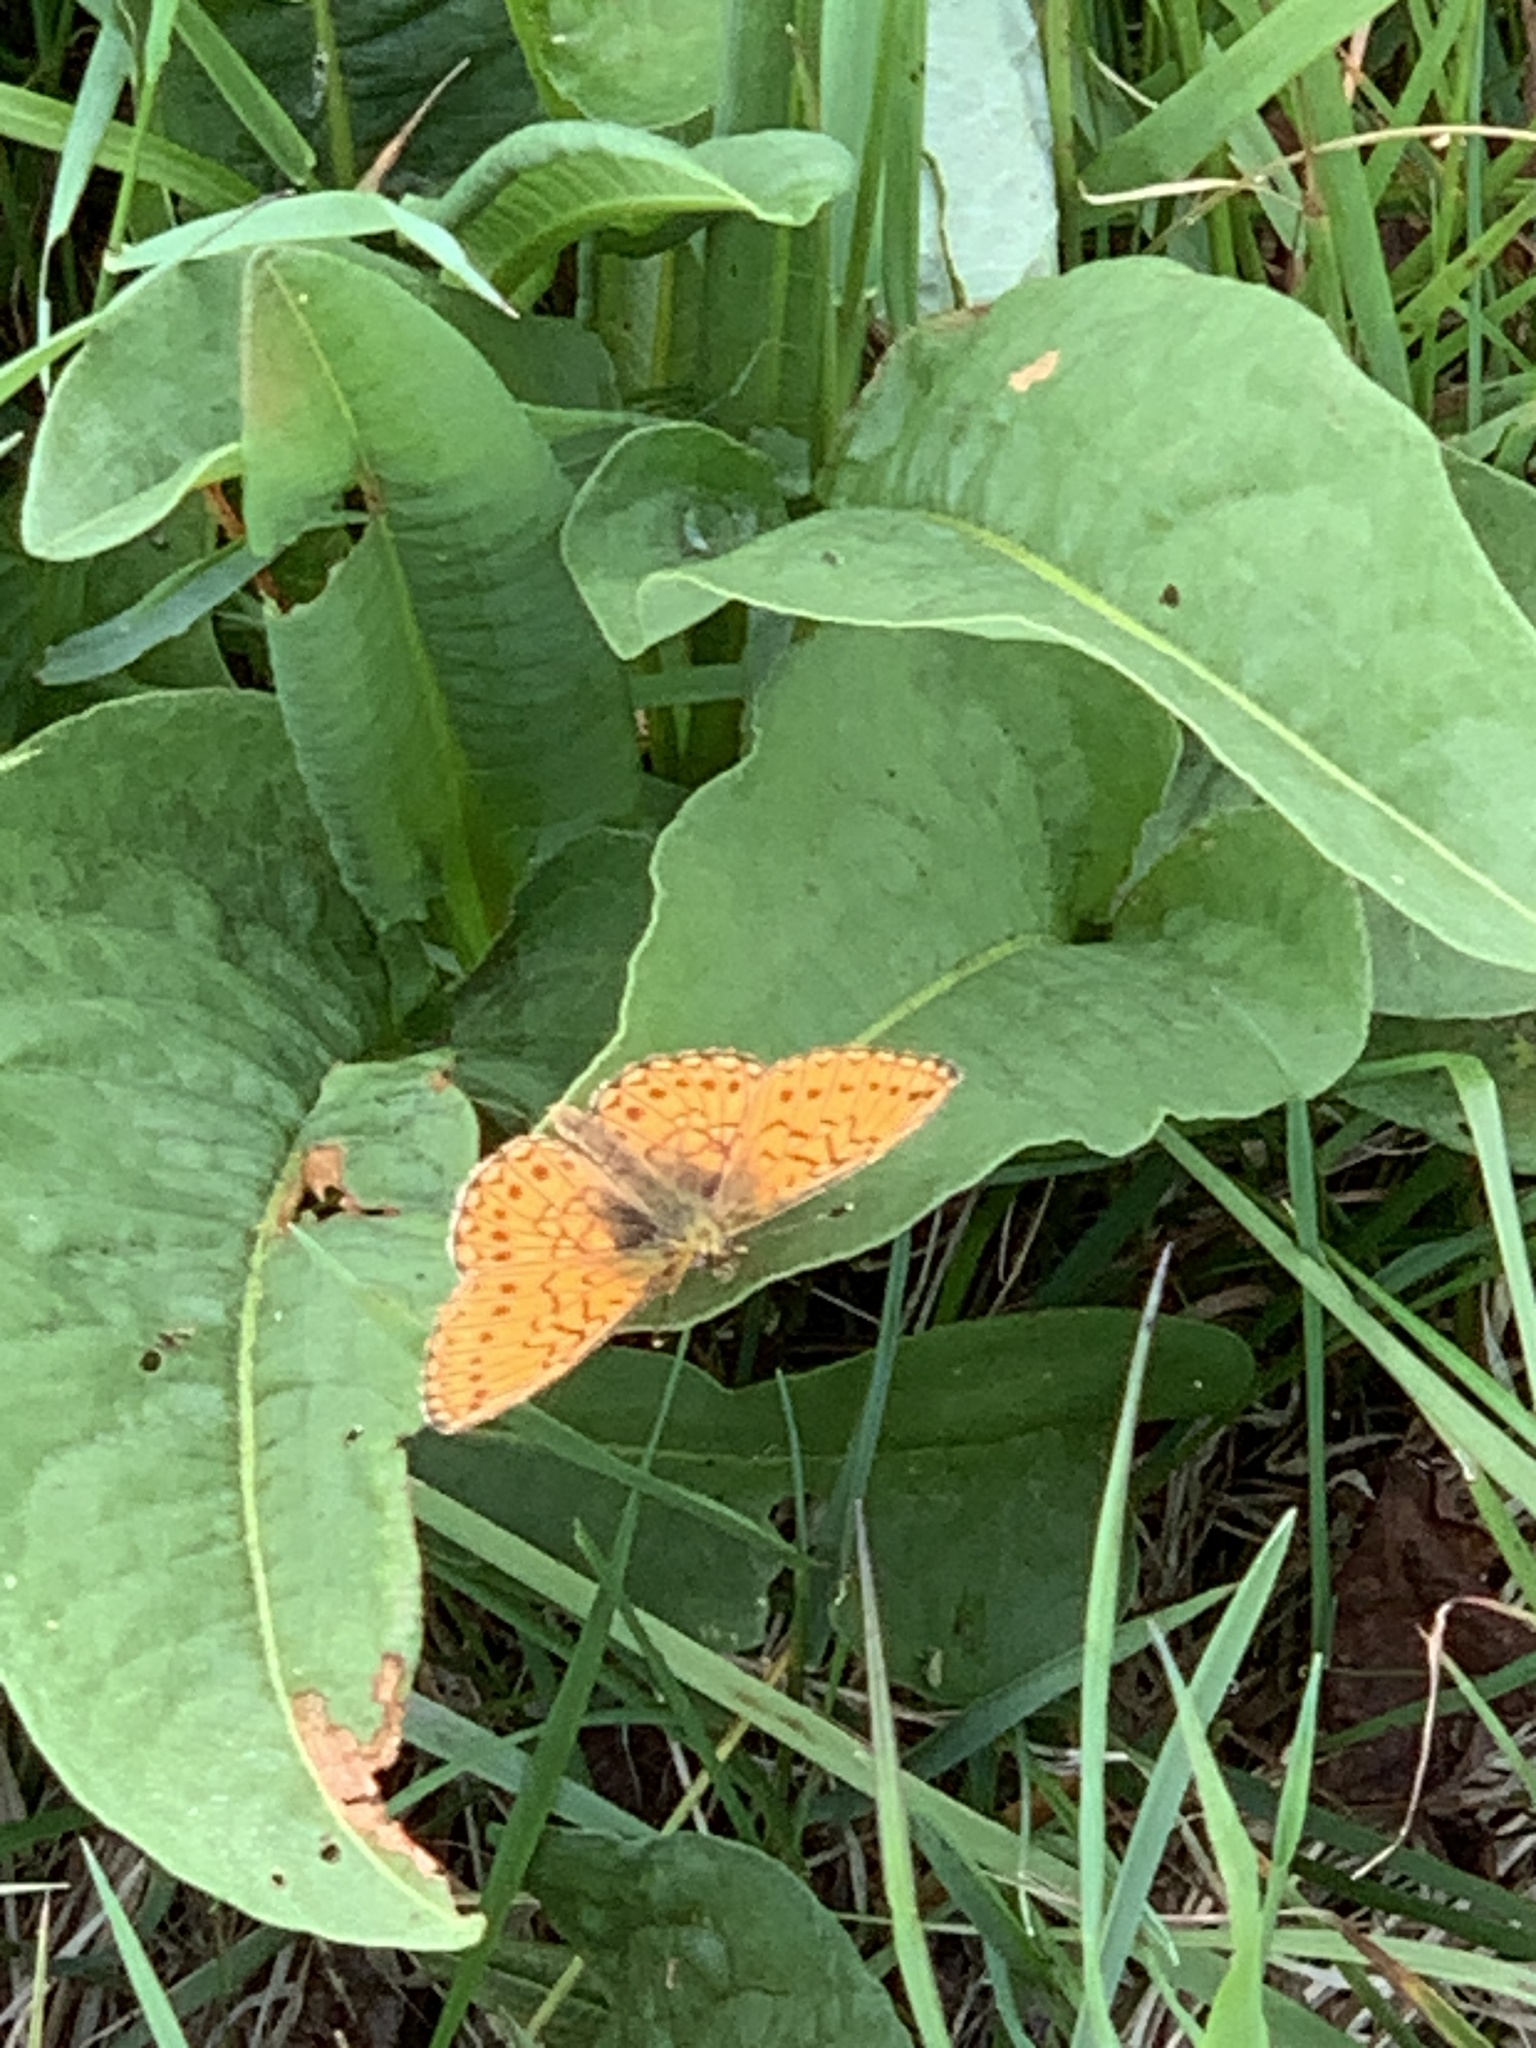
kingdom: Animalia
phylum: Arthropoda
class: Insecta
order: Lepidoptera
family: Nymphalidae
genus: Boloria
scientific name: Boloria eunomia
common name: Bog fritillary
